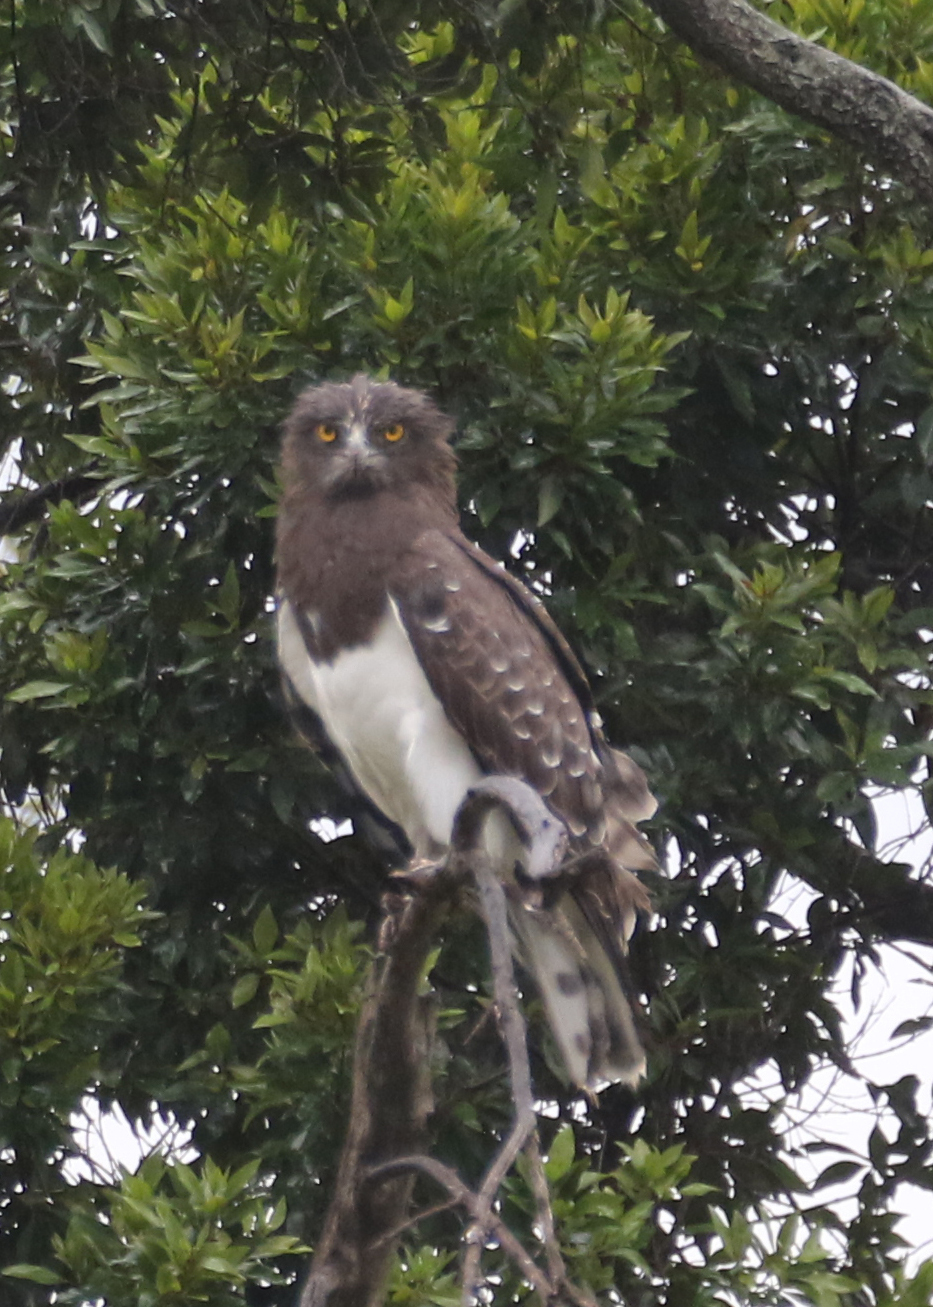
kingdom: Animalia
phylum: Chordata
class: Aves
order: Accipitriformes
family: Accipitridae
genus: Circaetus
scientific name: Circaetus pectoralis
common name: Black-chested snake eagle
